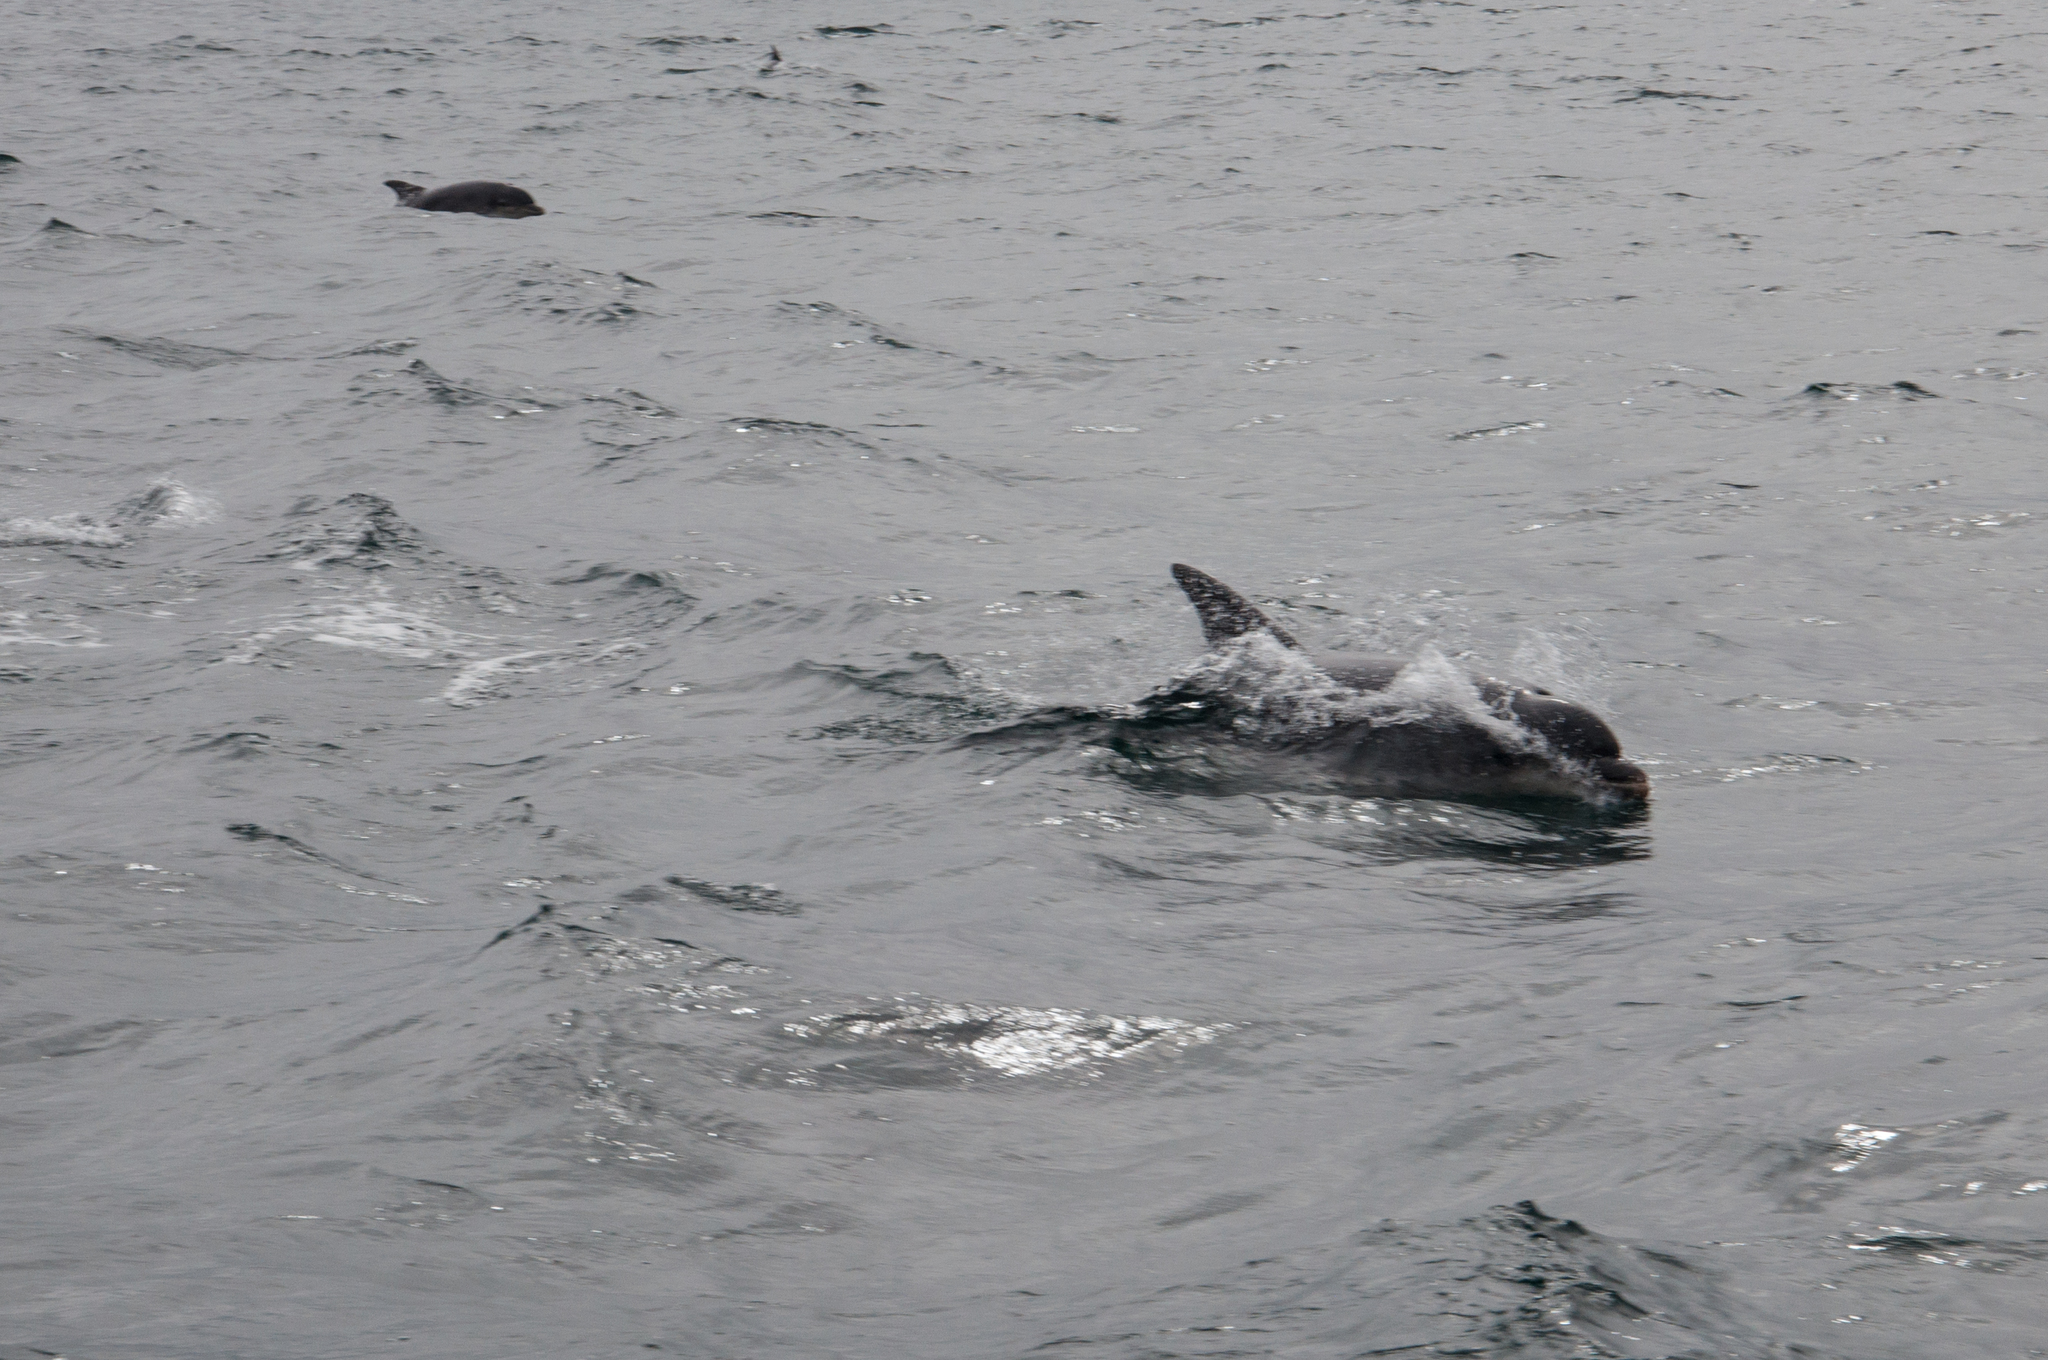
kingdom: Animalia
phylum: Chordata
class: Mammalia
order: Cetacea
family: Delphinidae
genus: Tursiops
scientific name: Tursiops truncatus
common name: Bottlenose dolphin
